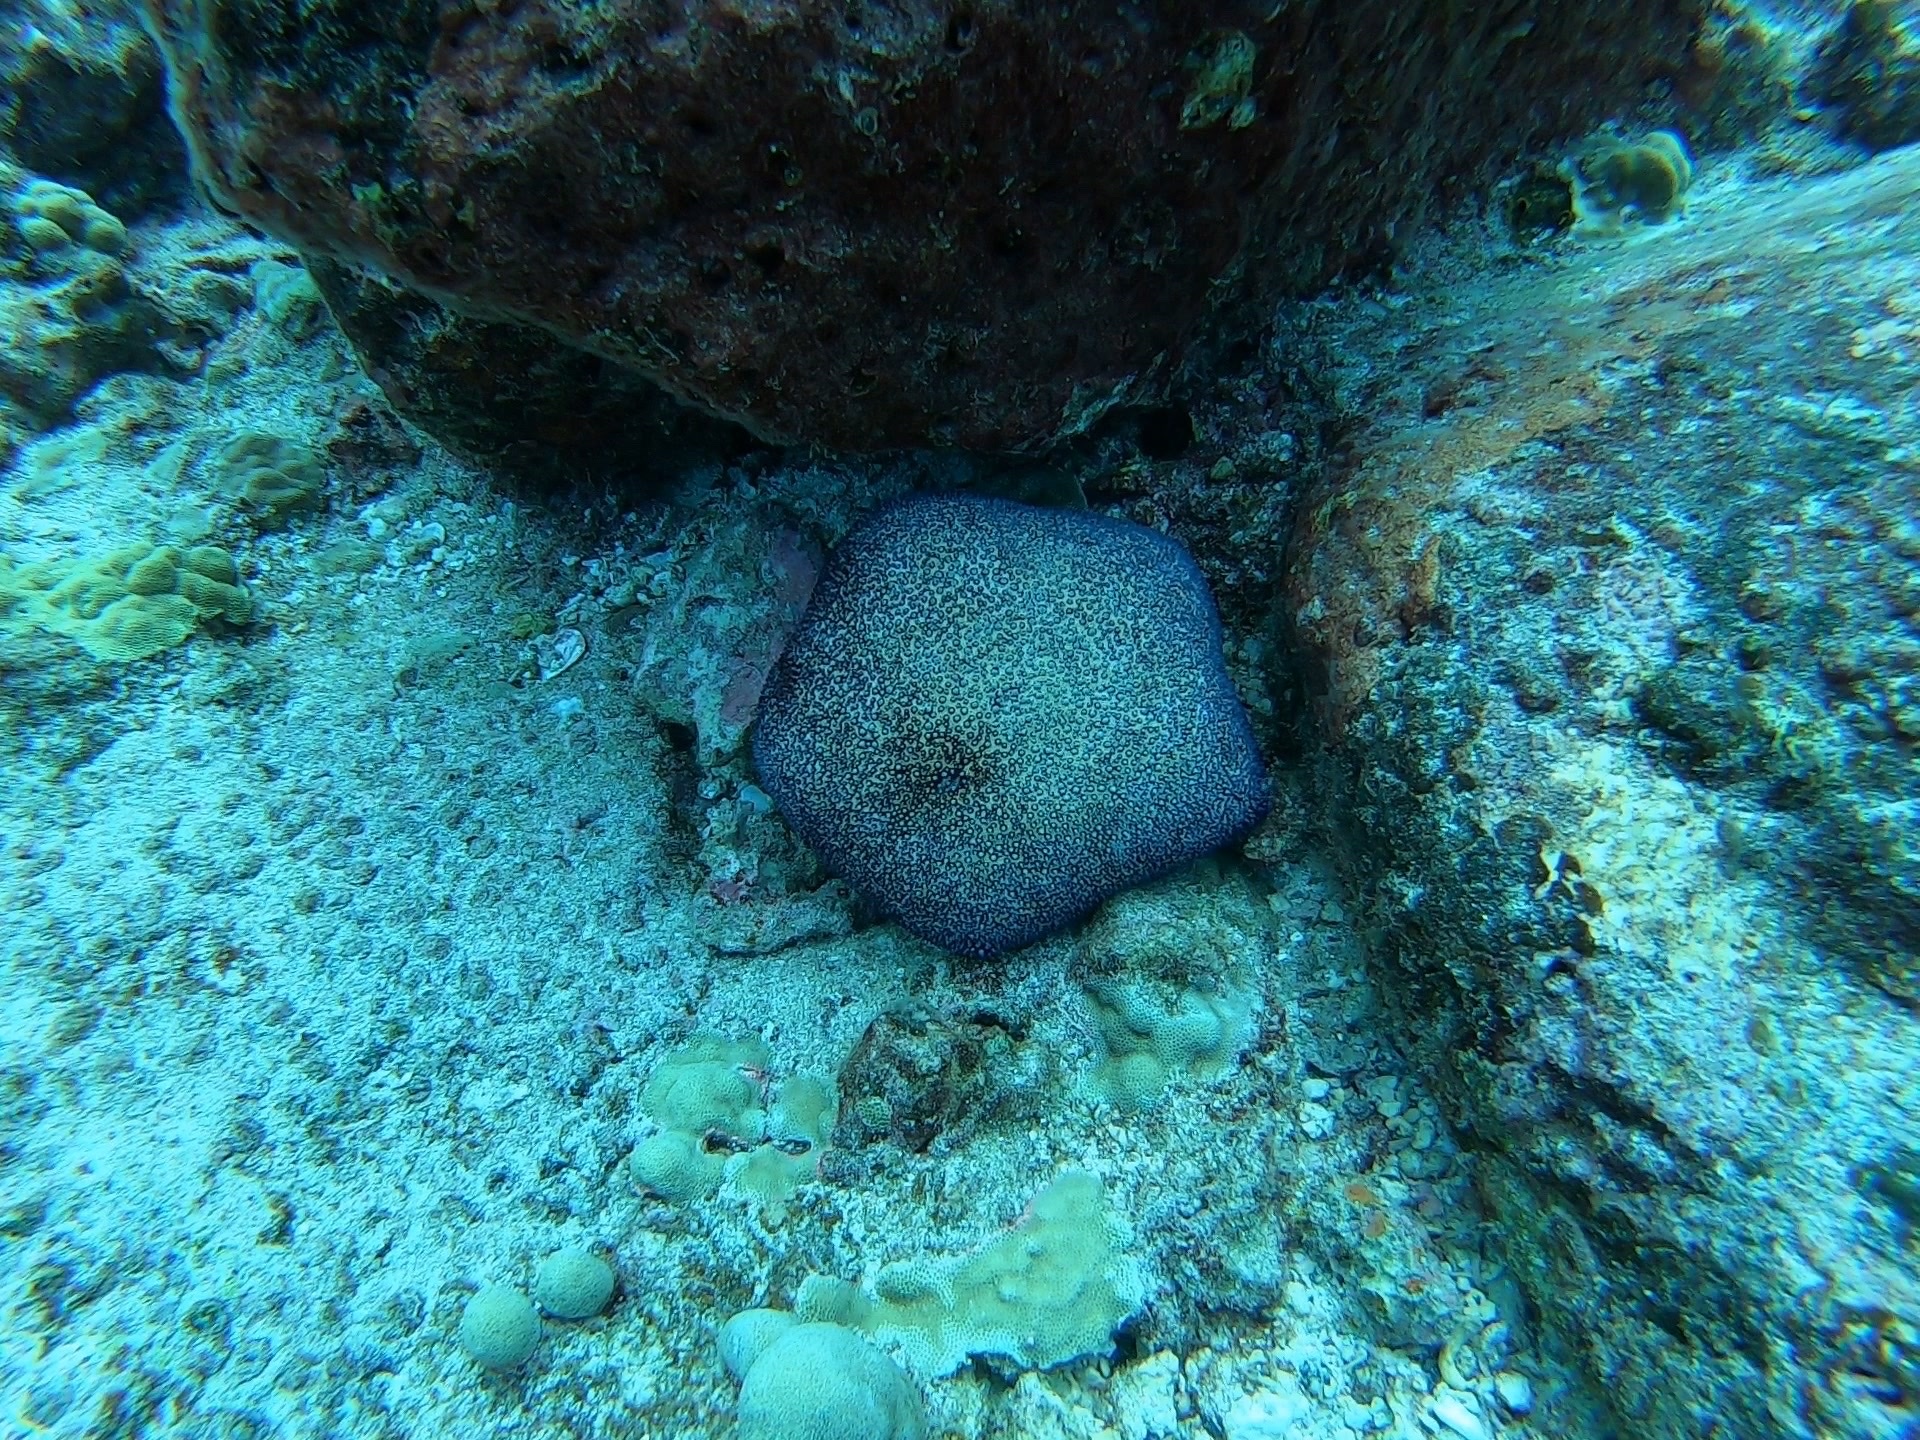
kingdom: Animalia
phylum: Echinodermata
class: Asteroidea
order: Valvatida
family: Oreasteridae
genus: Culcita
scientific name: Culcita novaeguineae
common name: Cushion star
